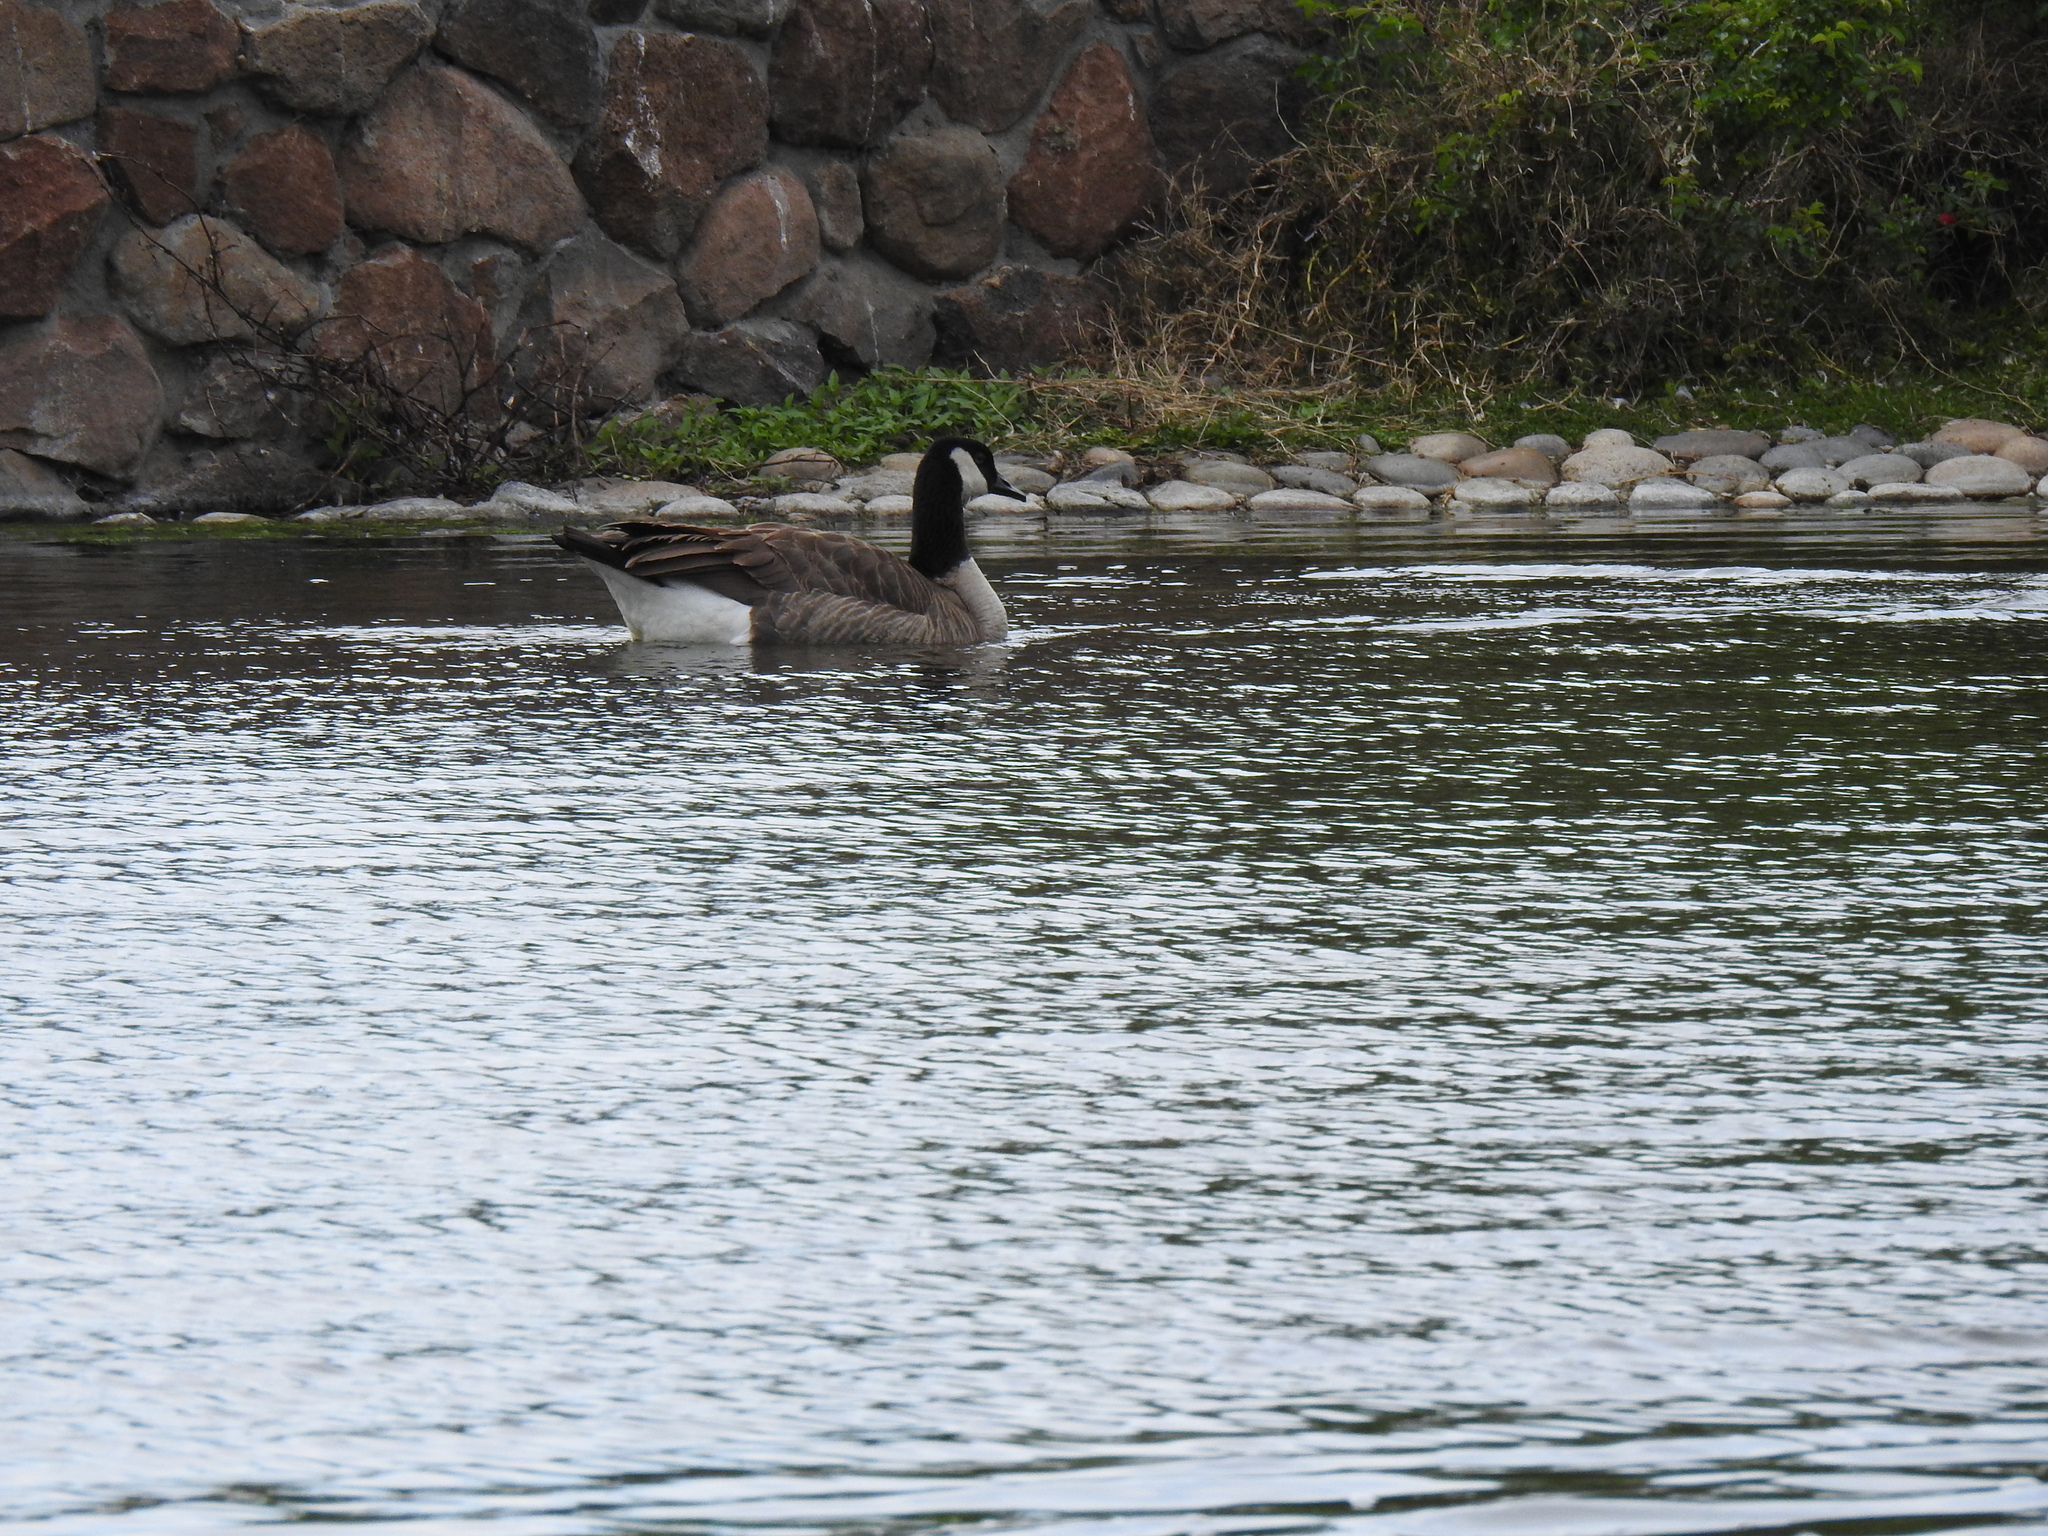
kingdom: Animalia
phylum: Chordata
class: Aves
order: Anseriformes
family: Anatidae
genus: Branta
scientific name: Branta canadensis
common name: Canada goose
